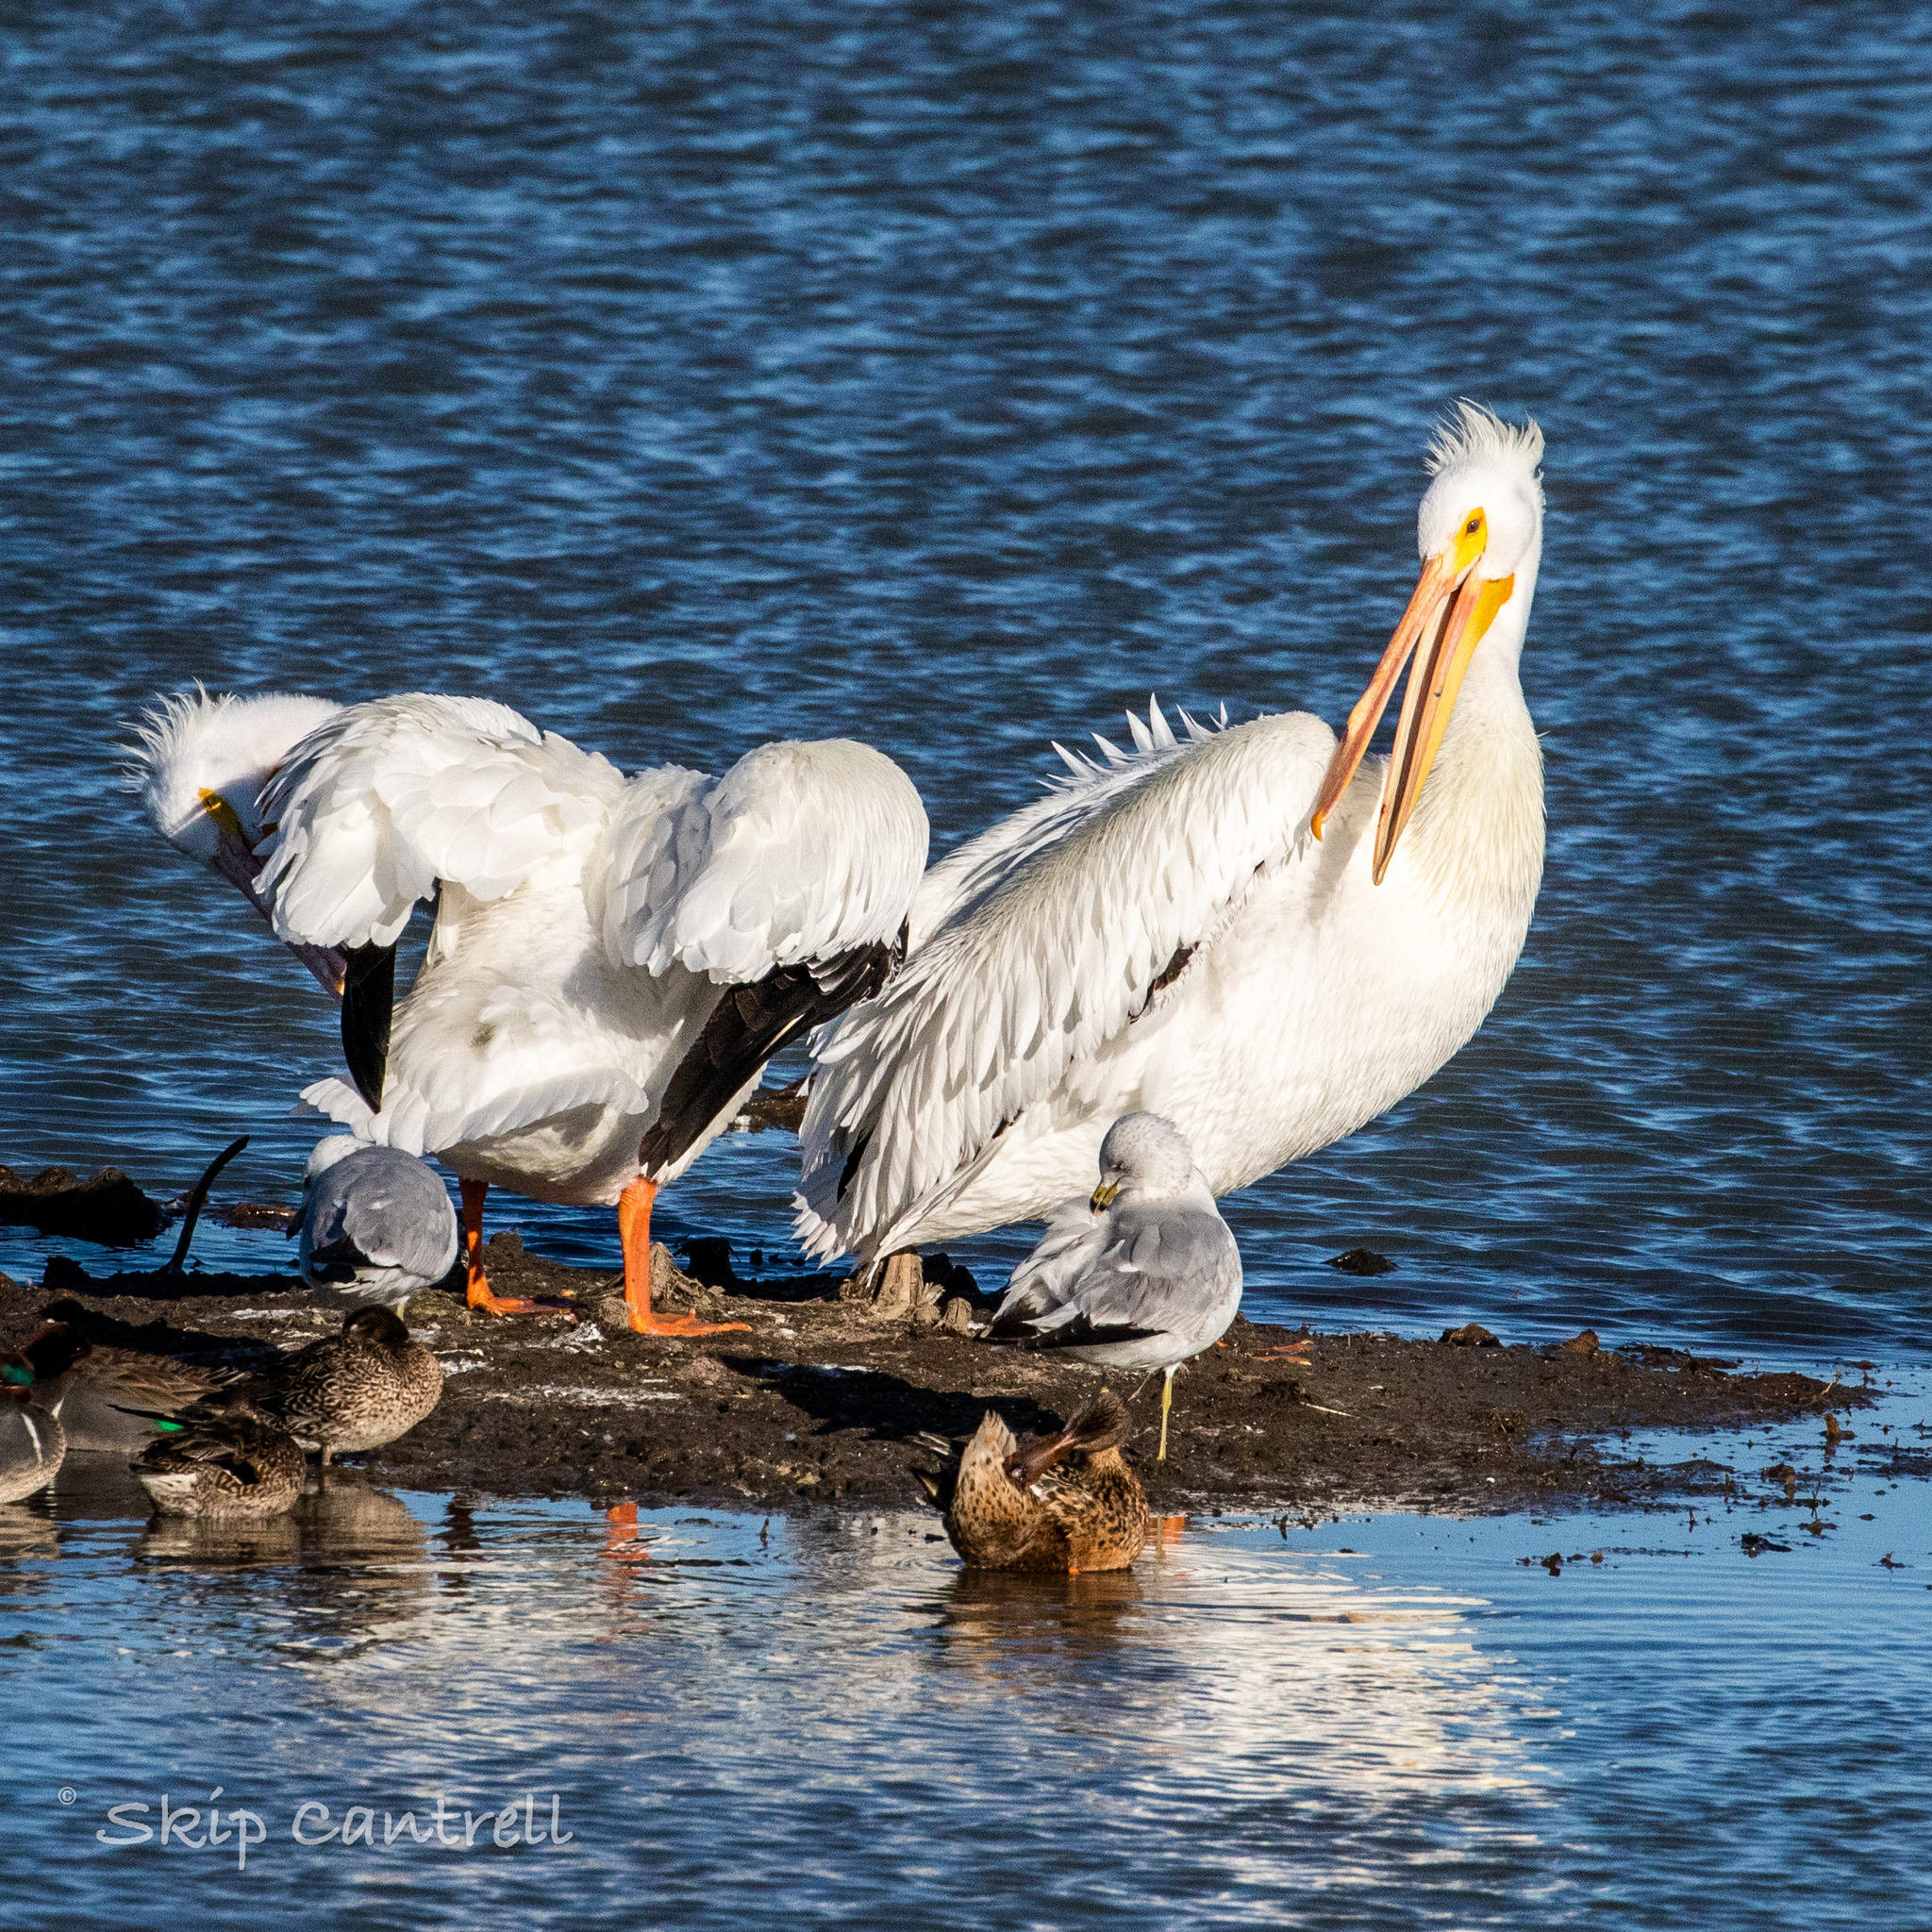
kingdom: Animalia
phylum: Chordata
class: Aves
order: Pelecaniformes
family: Pelecanidae
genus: Pelecanus
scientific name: Pelecanus erythrorhynchos
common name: American white pelican
